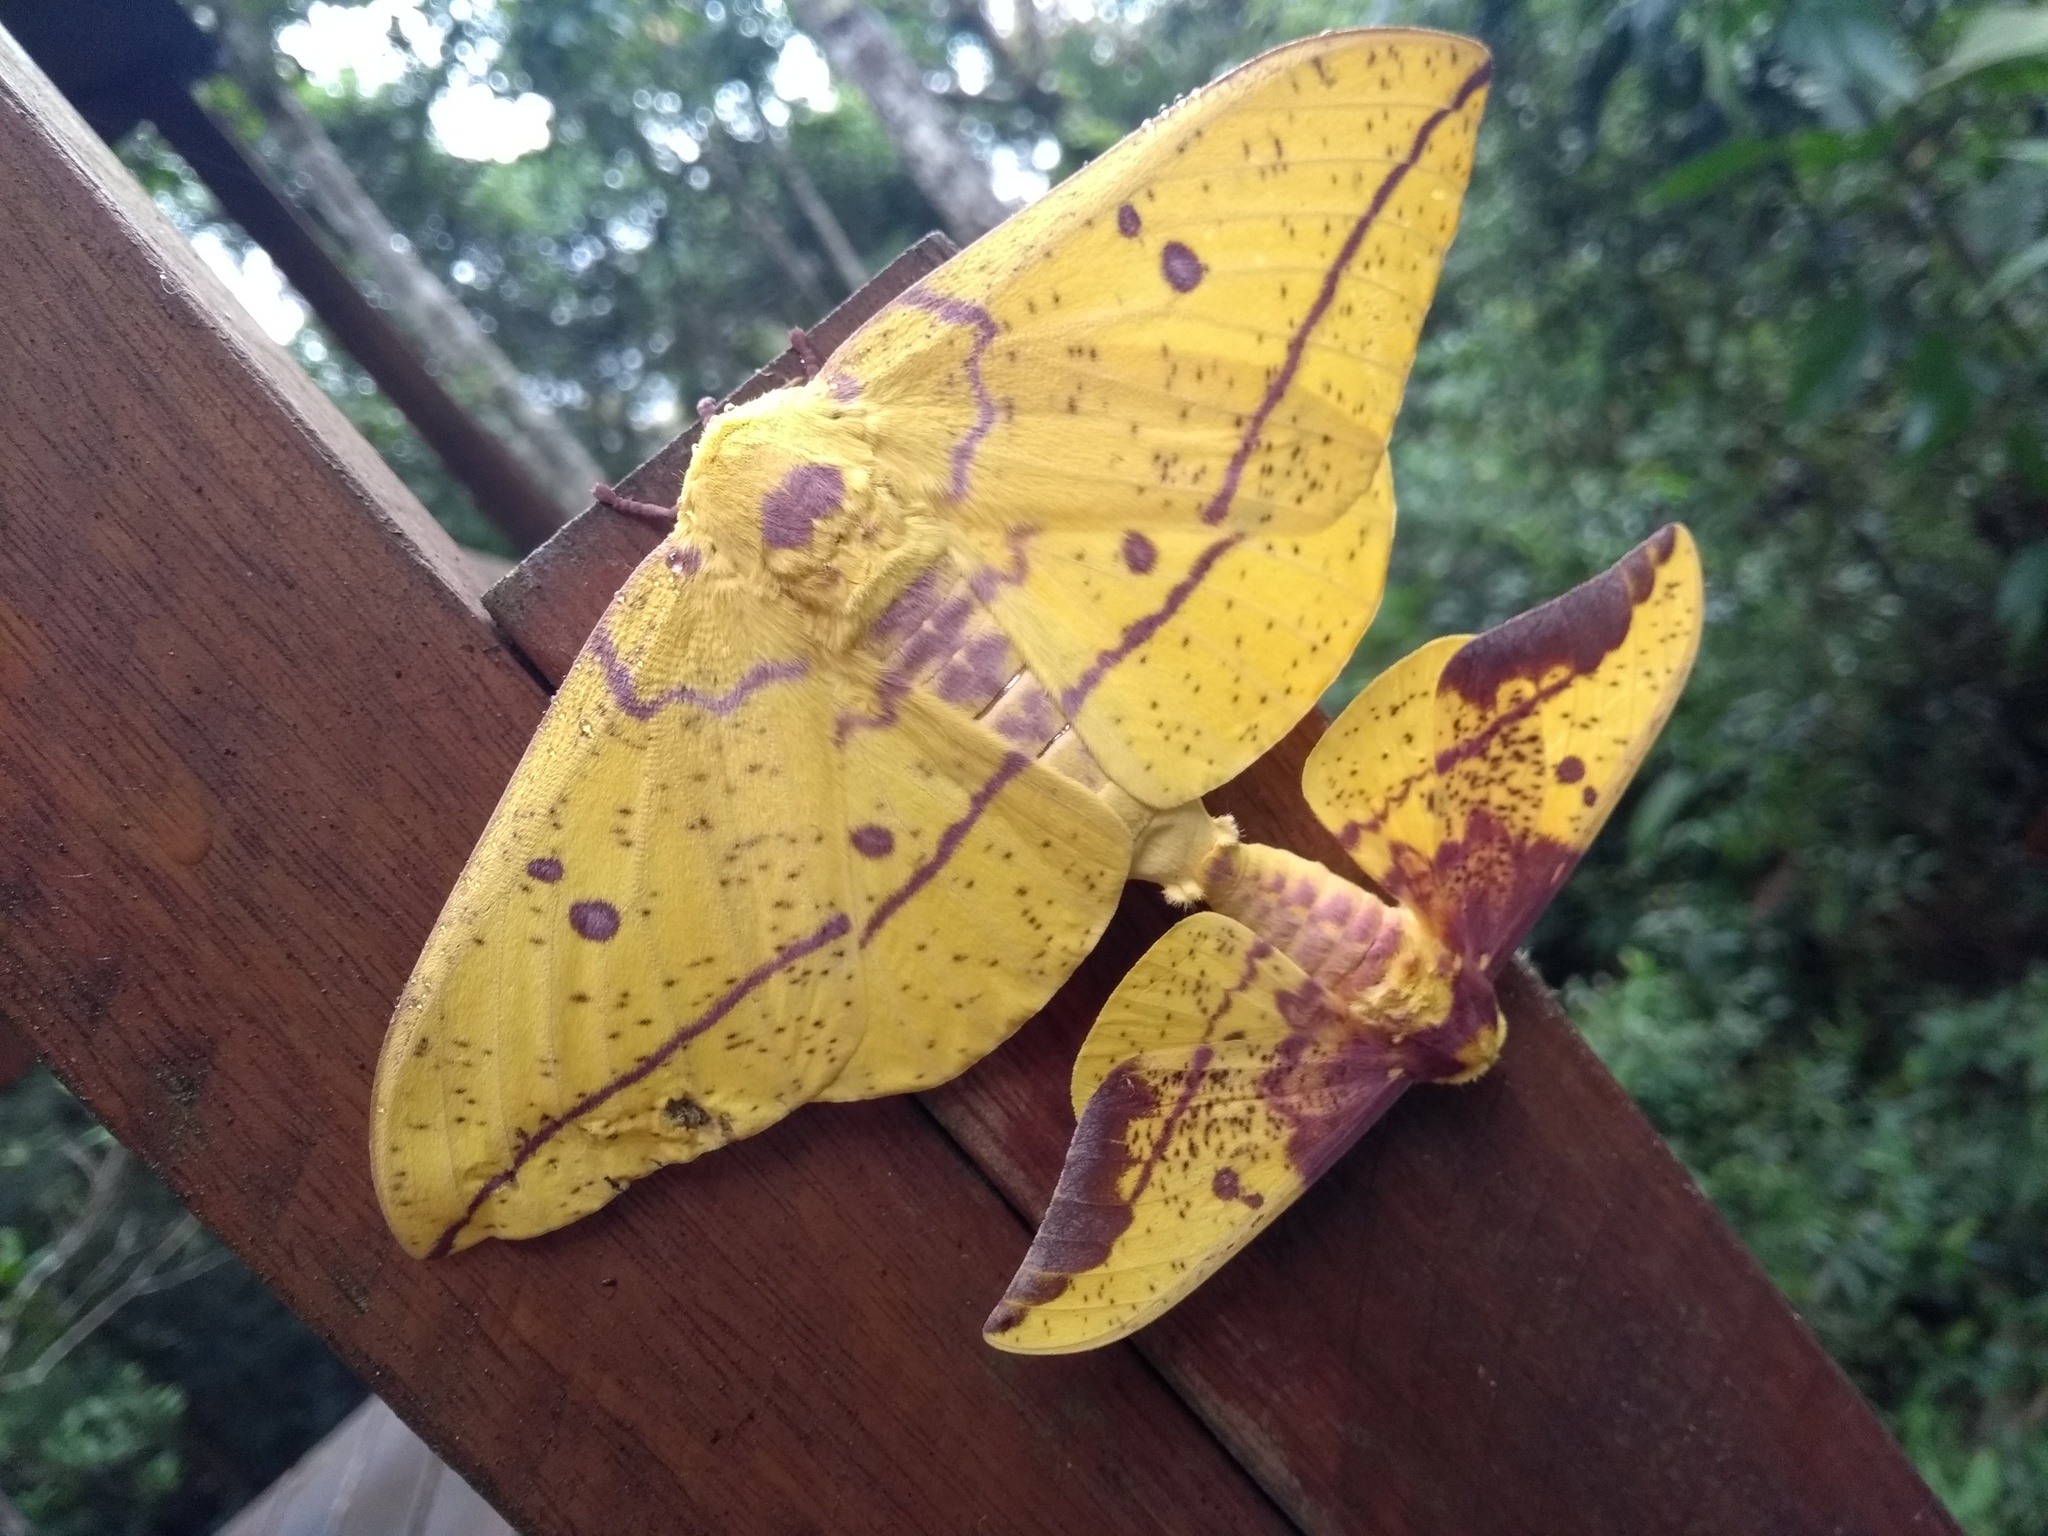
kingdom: Animalia
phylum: Arthropoda
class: Insecta
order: Lepidoptera
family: Saturniidae
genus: Eacles
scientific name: Eacles imperialis
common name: Imperial moth
